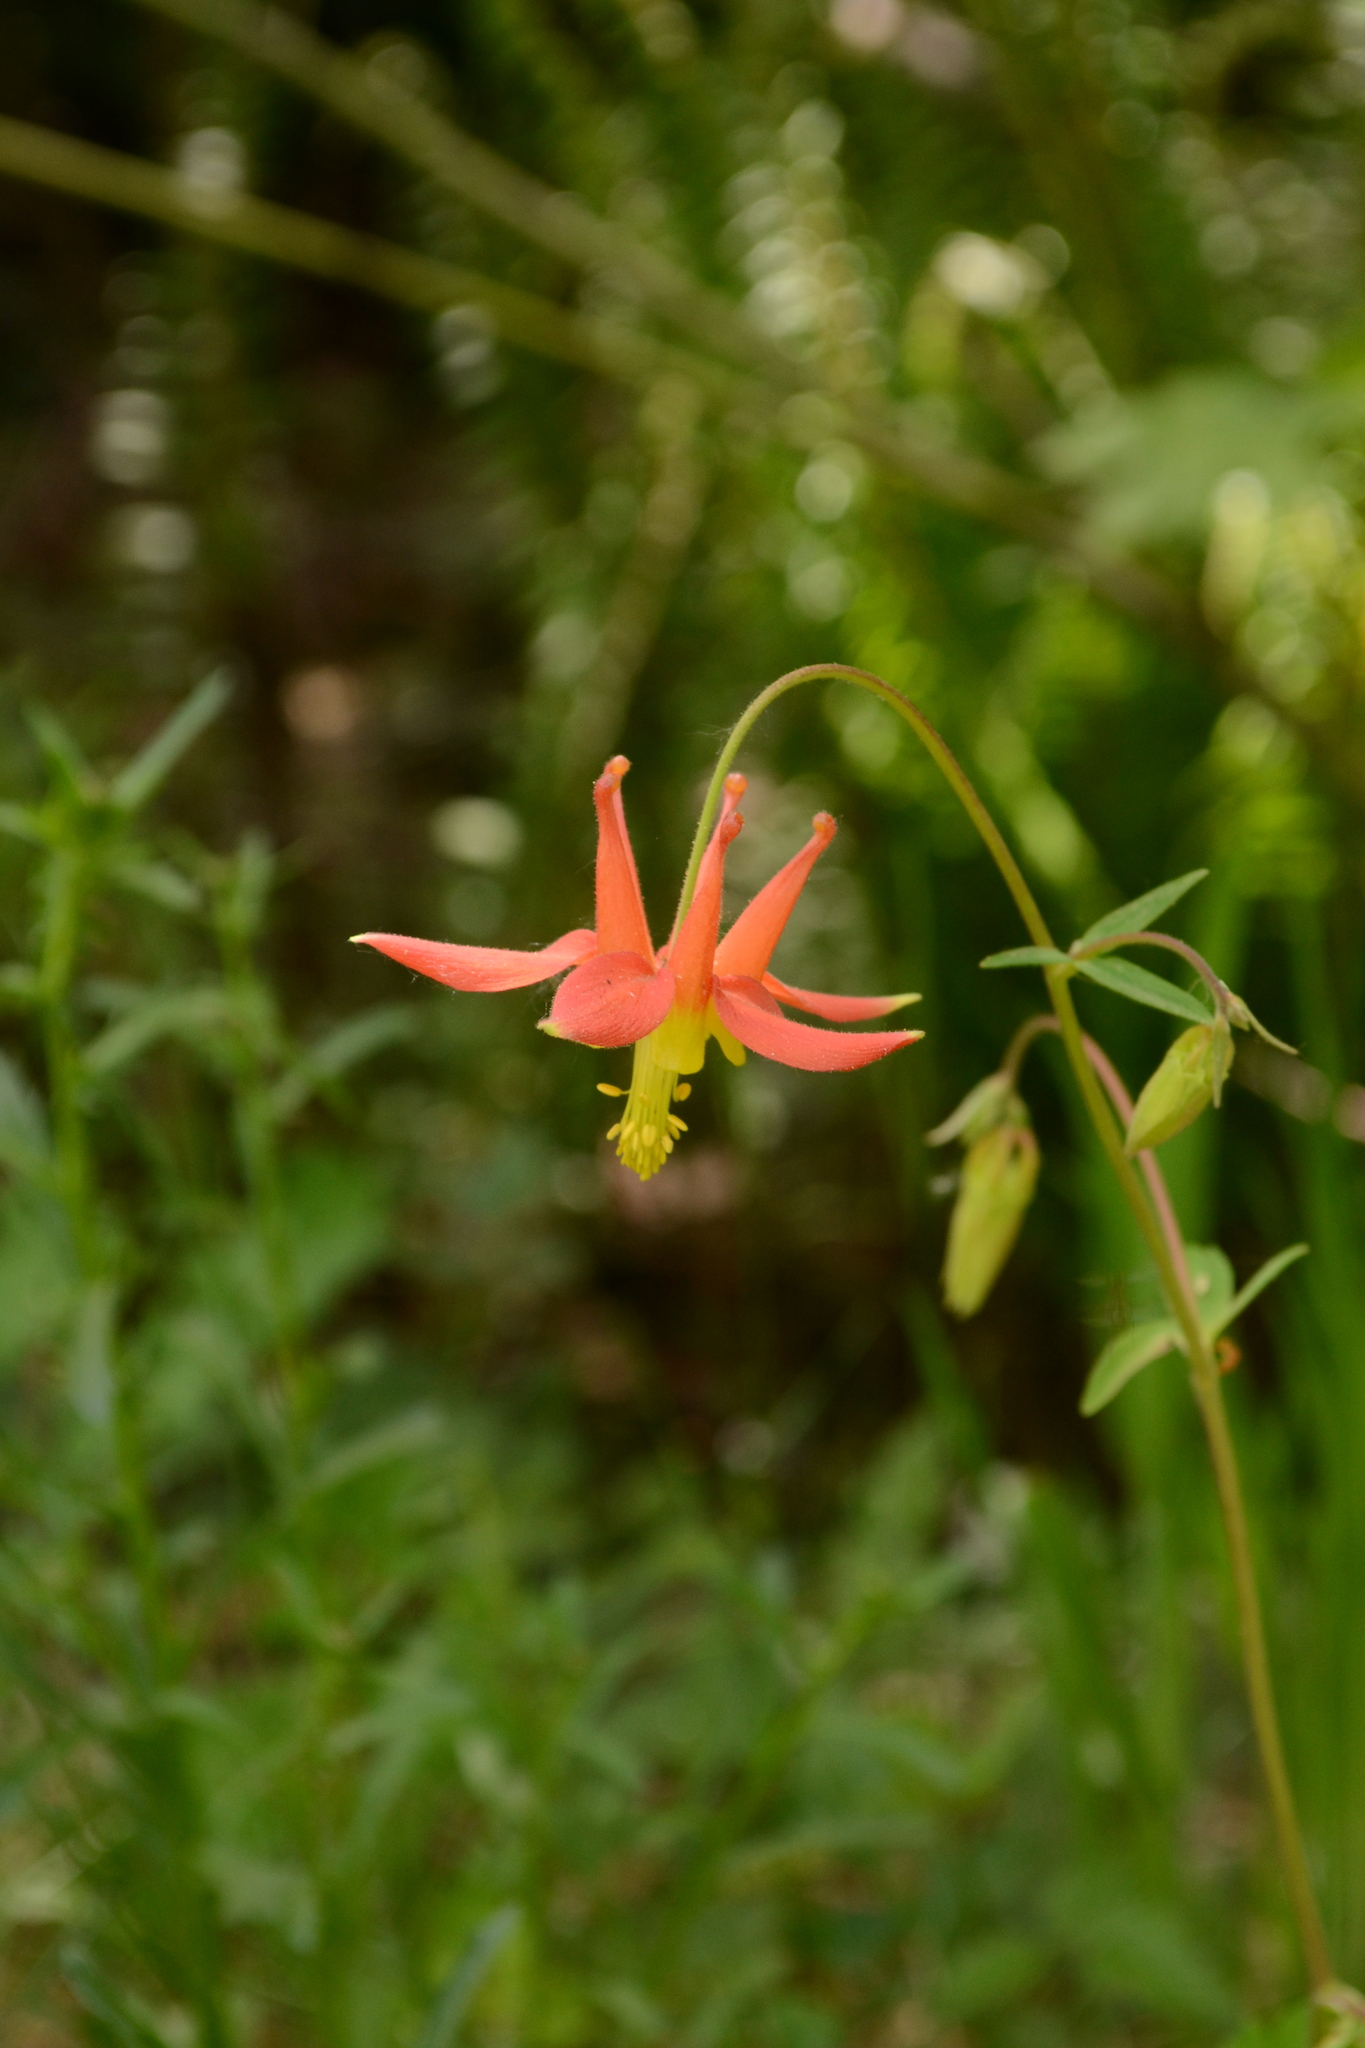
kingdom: Plantae
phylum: Tracheophyta
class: Magnoliopsida
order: Ranunculales
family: Ranunculaceae
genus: Aquilegia
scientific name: Aquilegia formosa
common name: Sitka columbine
